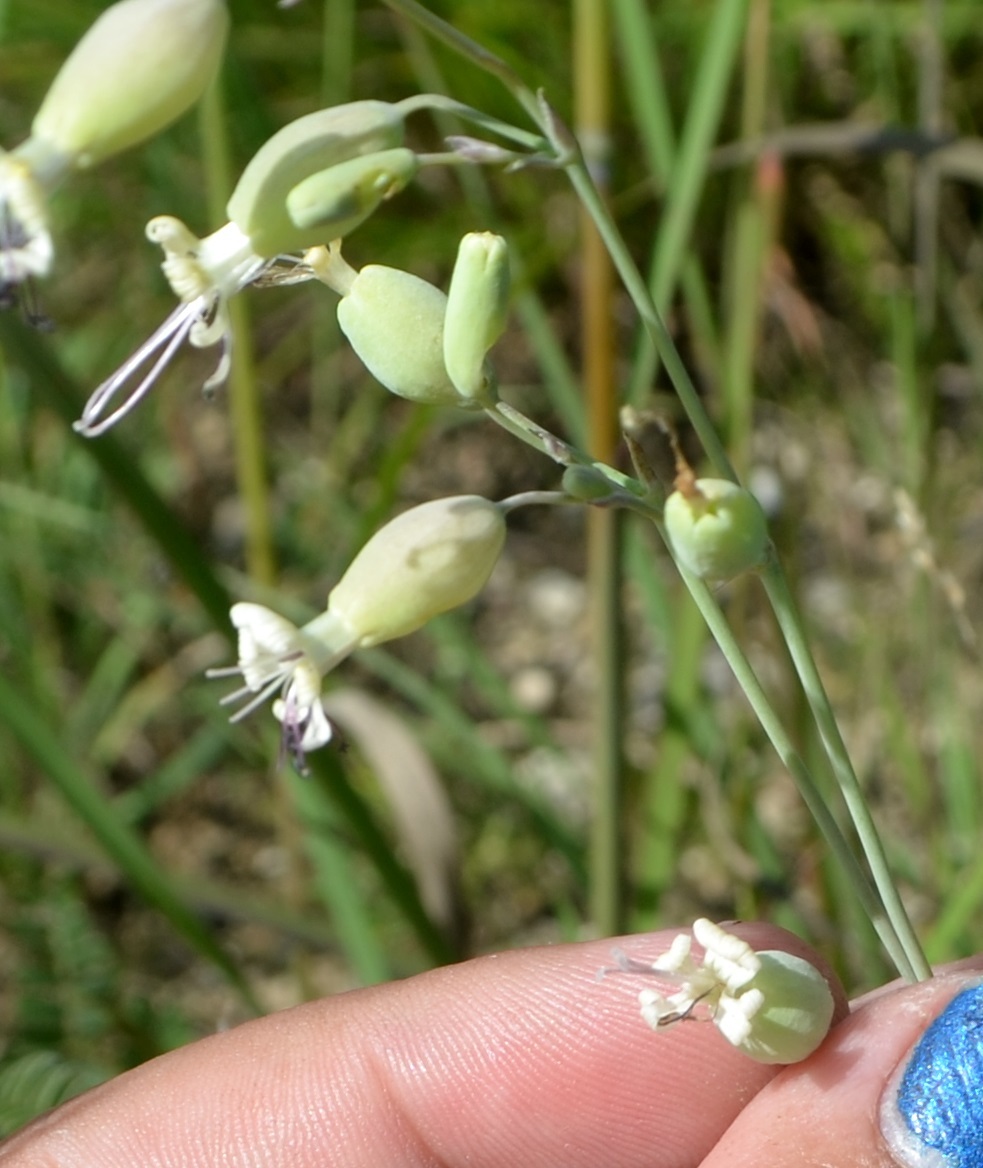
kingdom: Plantae
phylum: Tracheophyta
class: Magnoliopsida
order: Caryophyllales
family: Caryophyllaceae
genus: Silene
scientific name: Silene csereii
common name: Balkan catchfly
